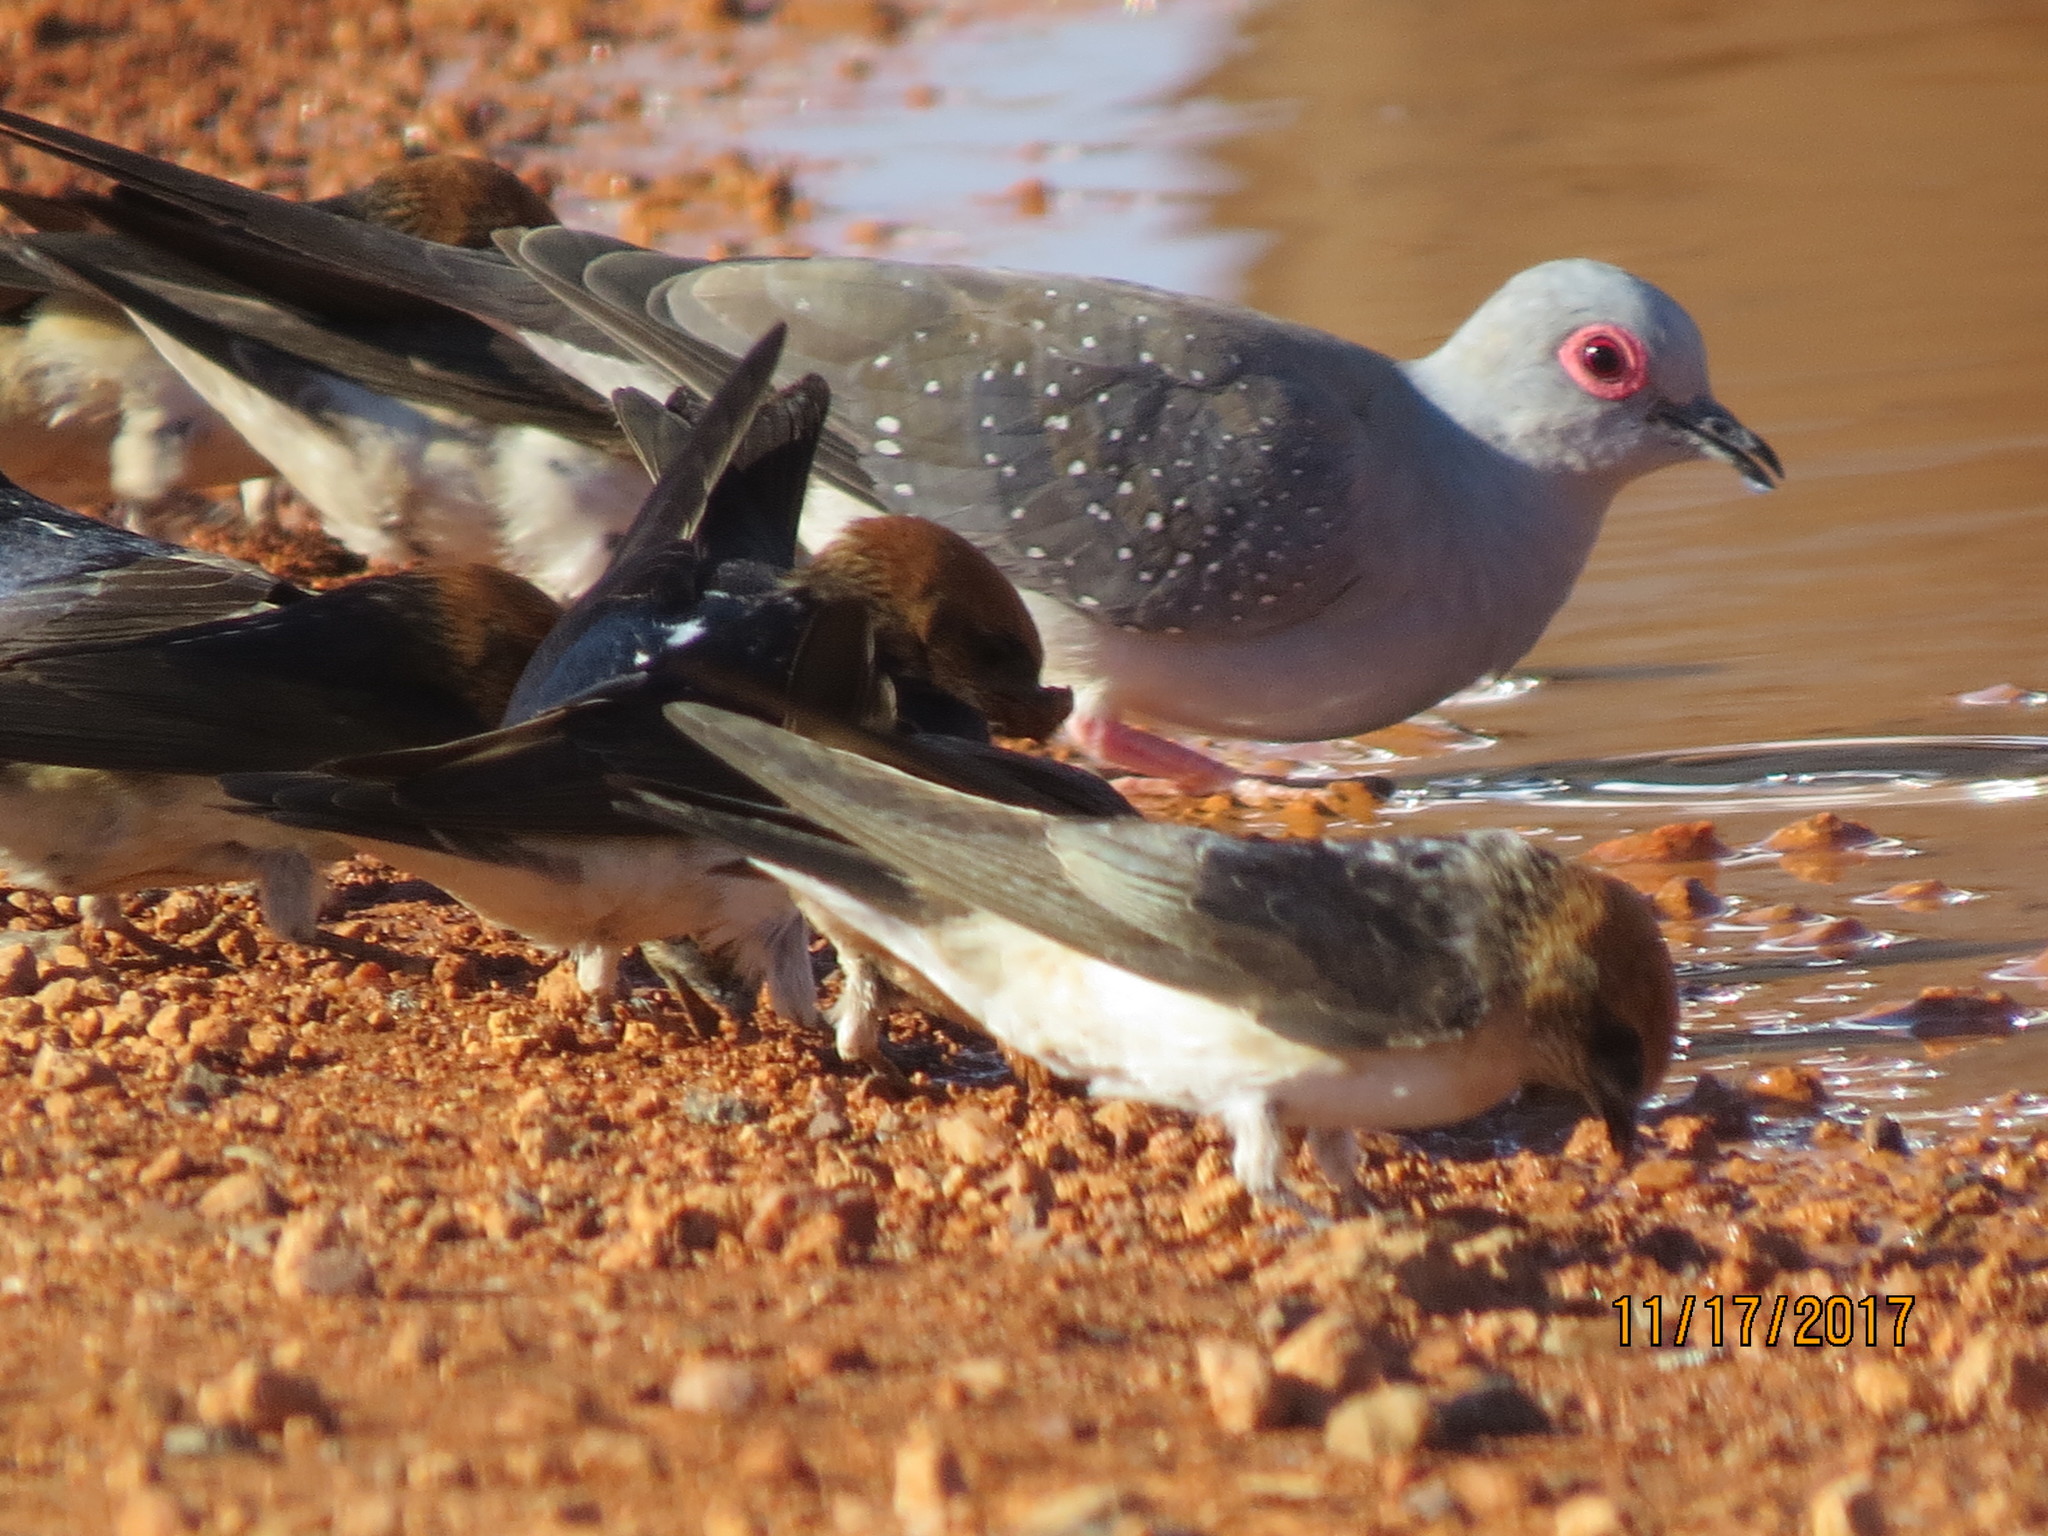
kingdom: Animalia
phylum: Chordata
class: Aves
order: Columbiformes
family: Columbidae
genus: Geopelia
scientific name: Geopelia cuneata
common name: Diamond dove
